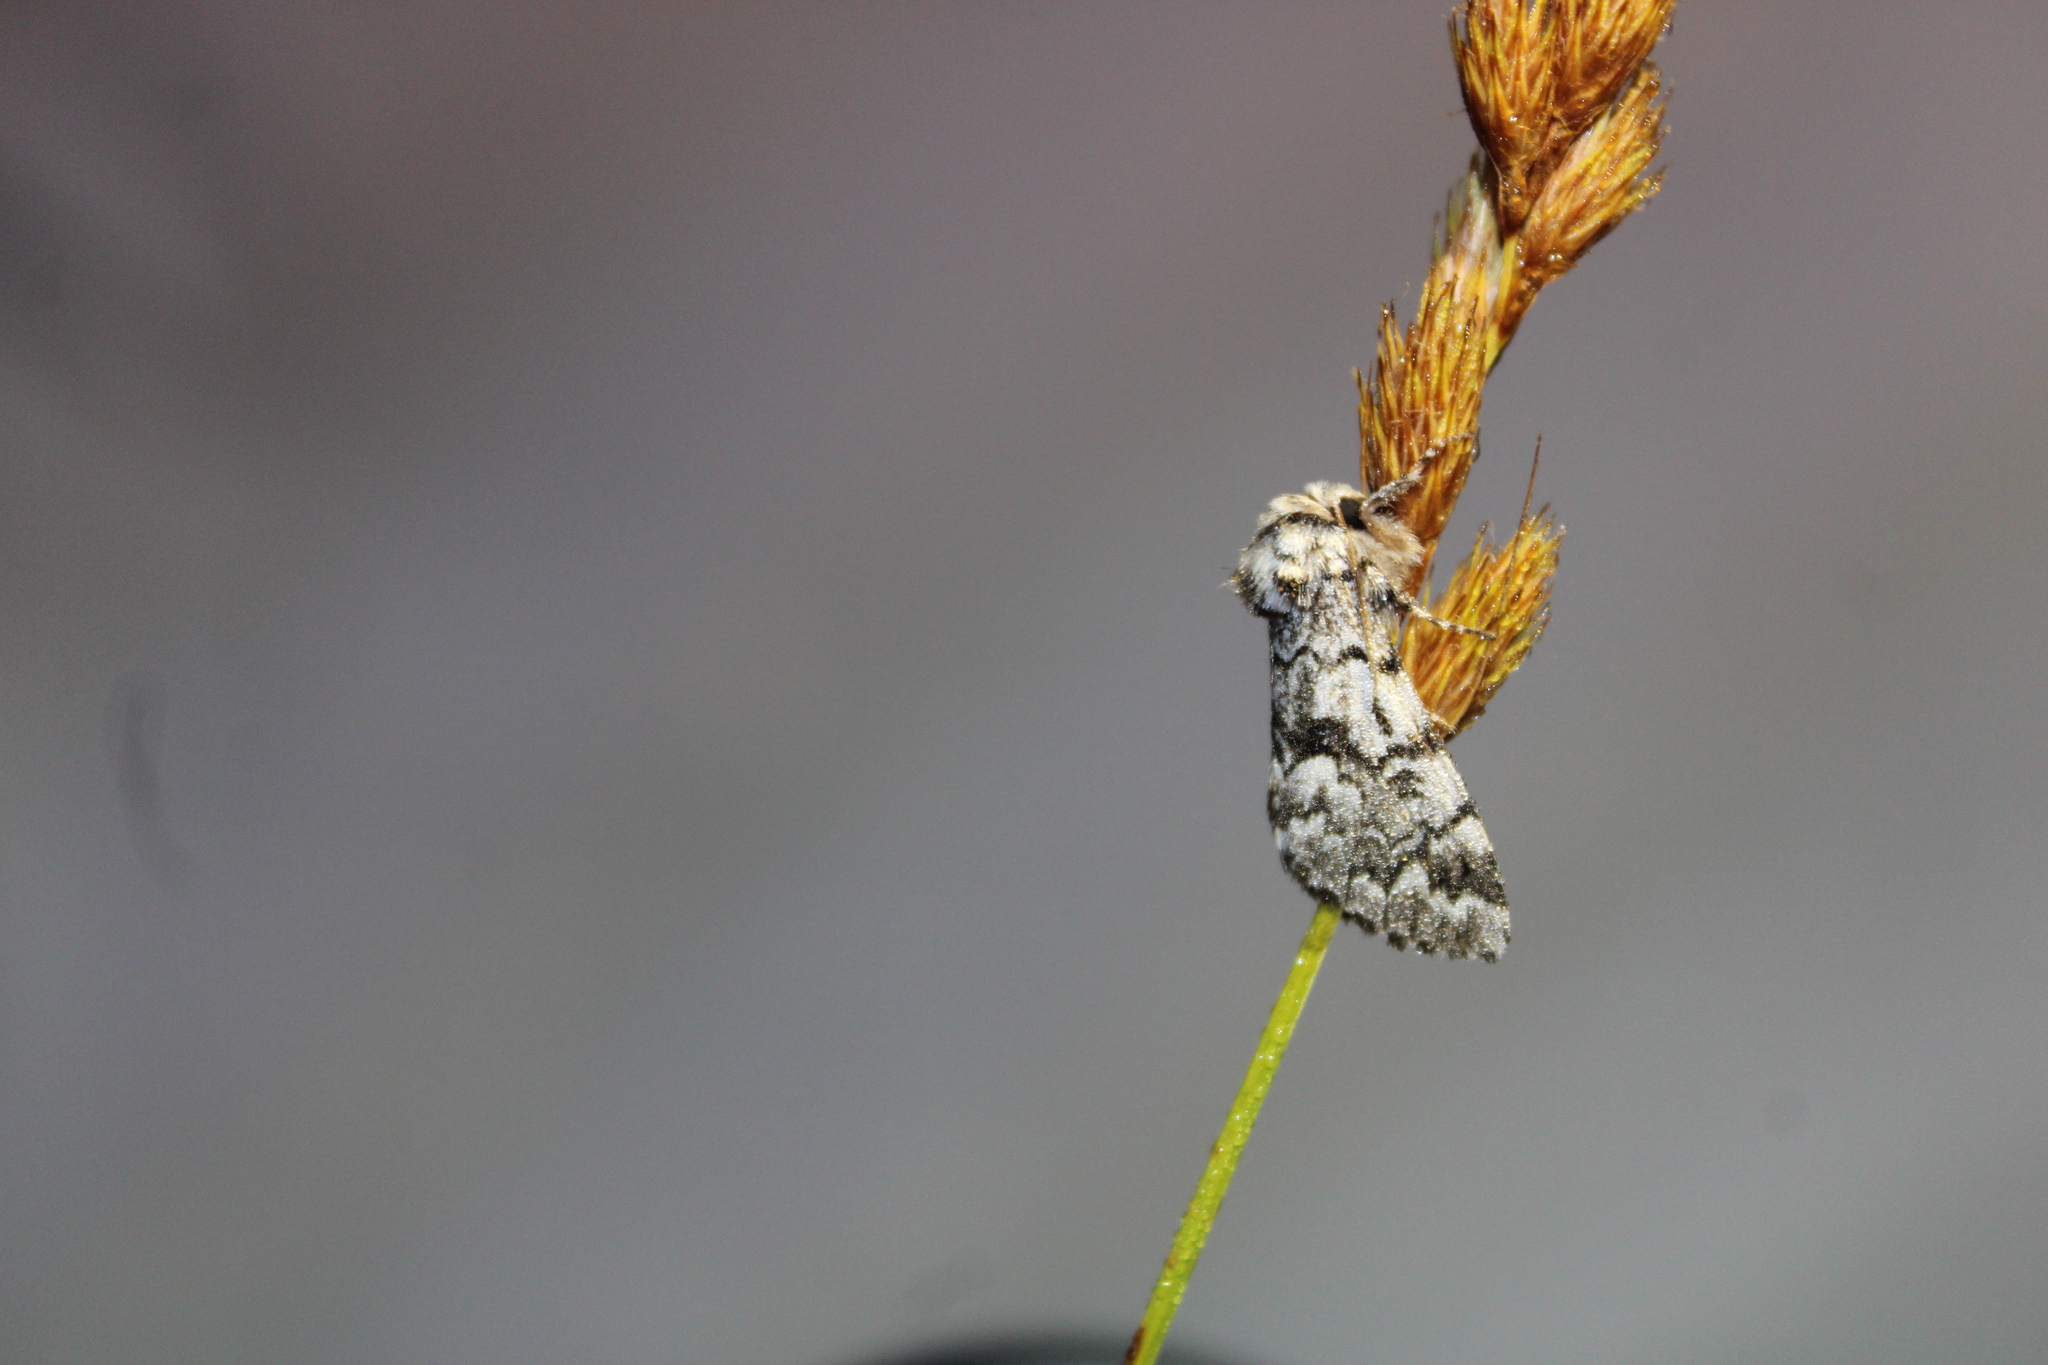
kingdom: Animalia
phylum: Arthropoda
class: Insecta
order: Lepidoptera
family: Noctuidae
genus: Panthea
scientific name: Panthea acronyctoides
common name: Black zigzag moth
